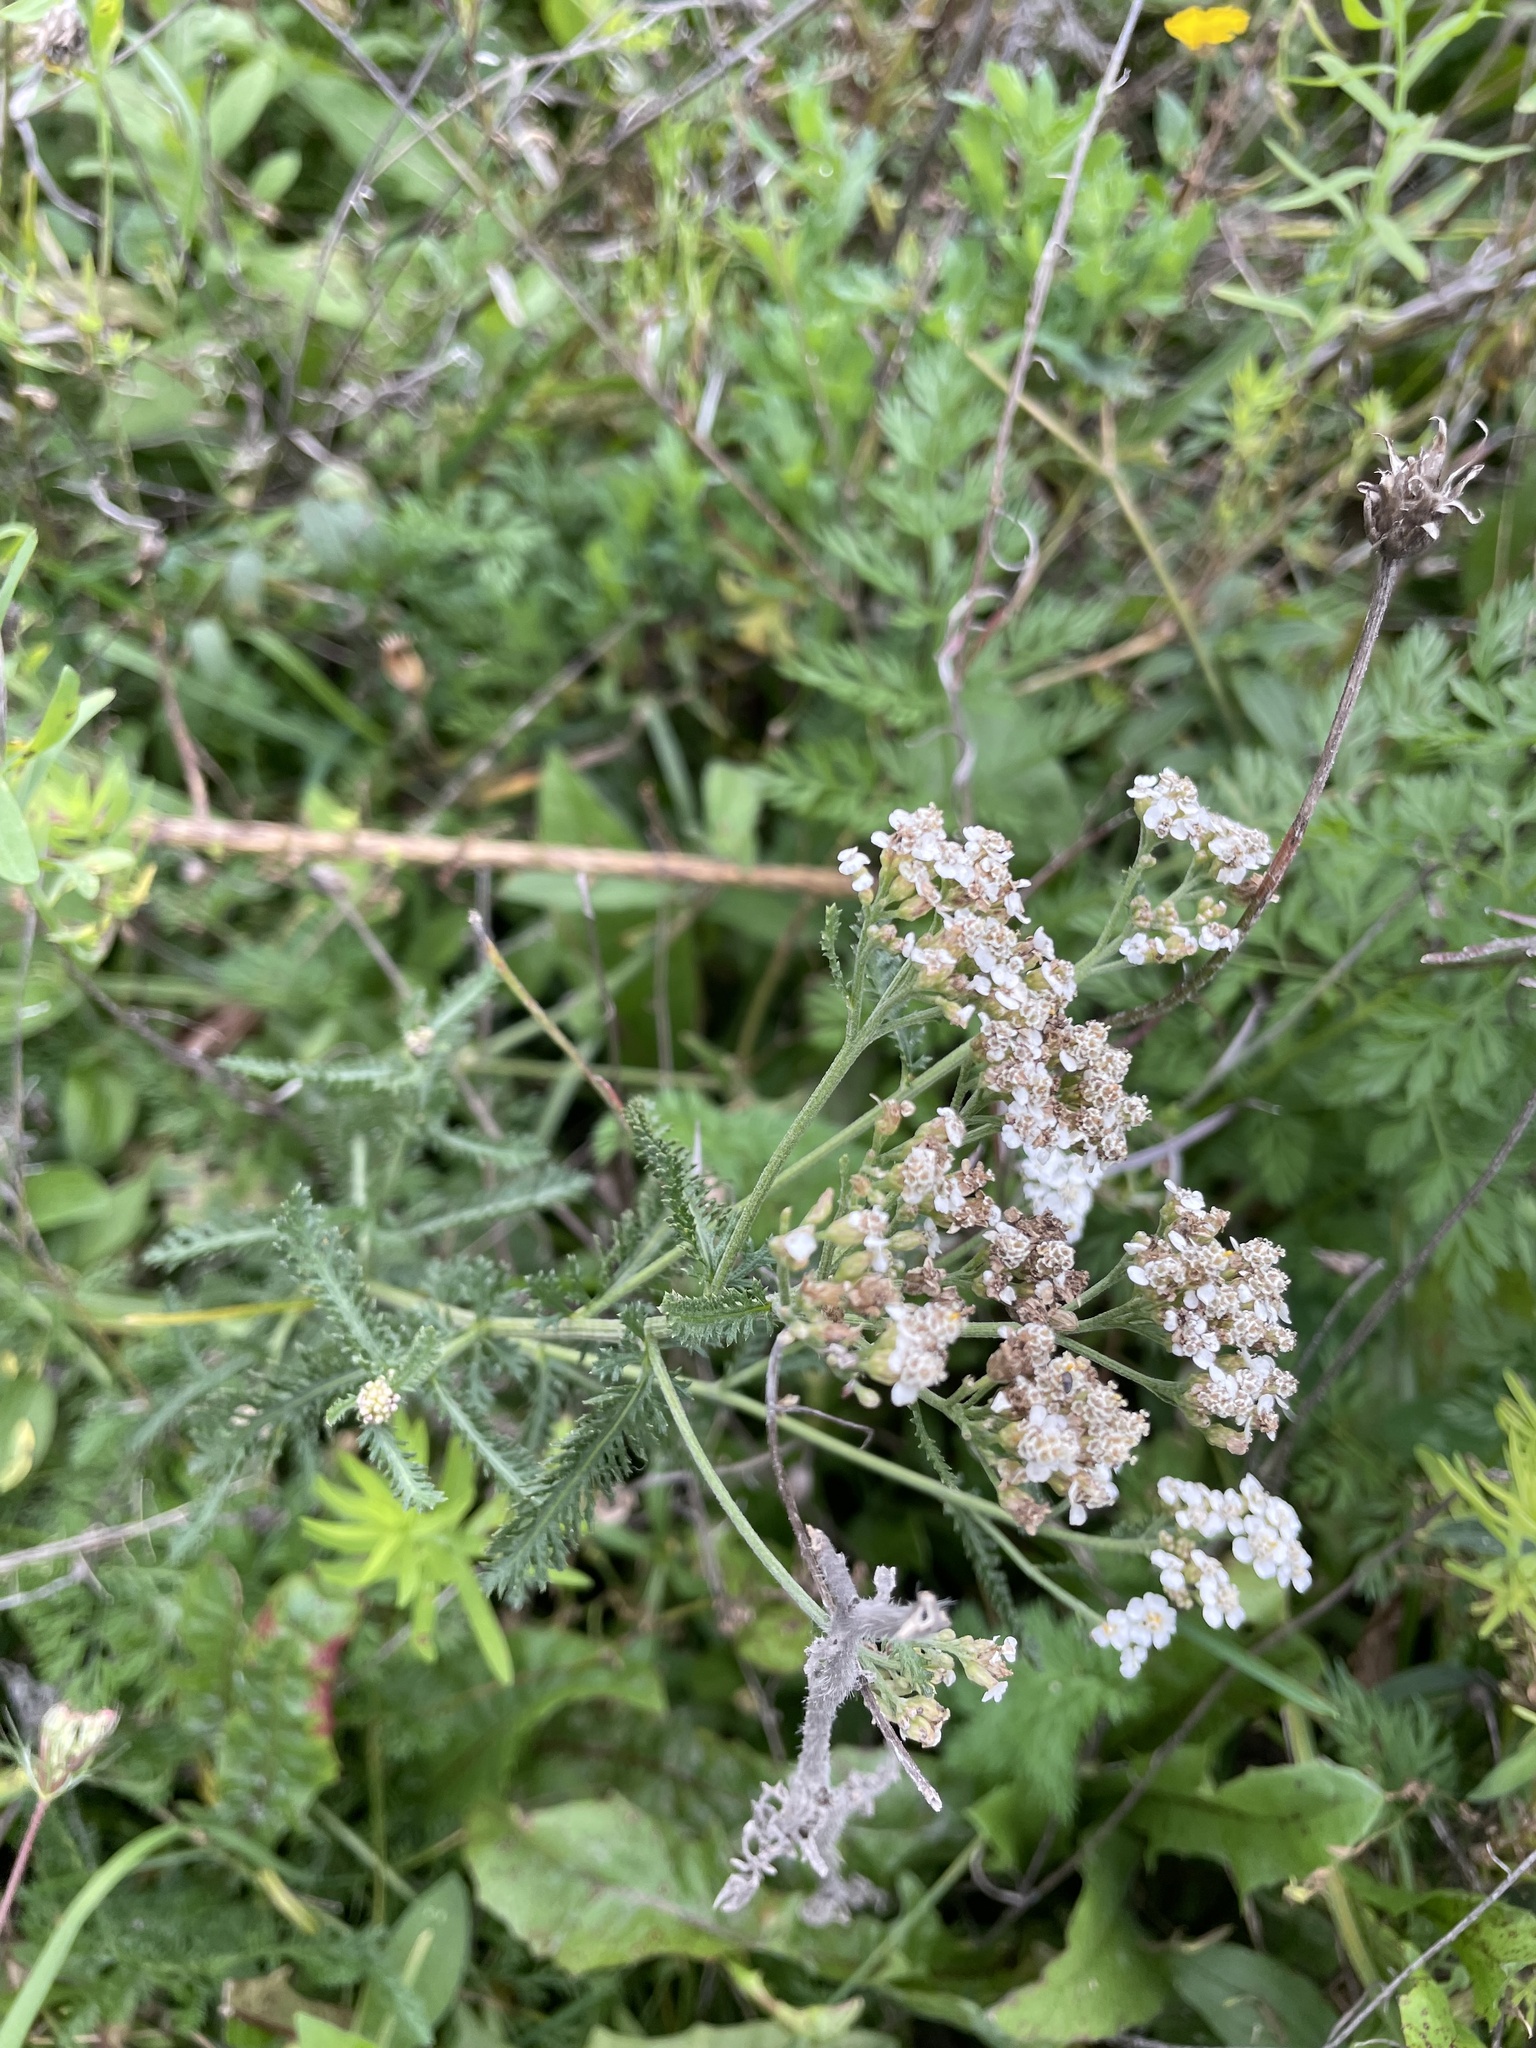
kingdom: Plantae
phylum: Tracheophyta
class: Magnoliopsida
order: Asterales
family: Asteraceae
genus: Achillea
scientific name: Achillea
